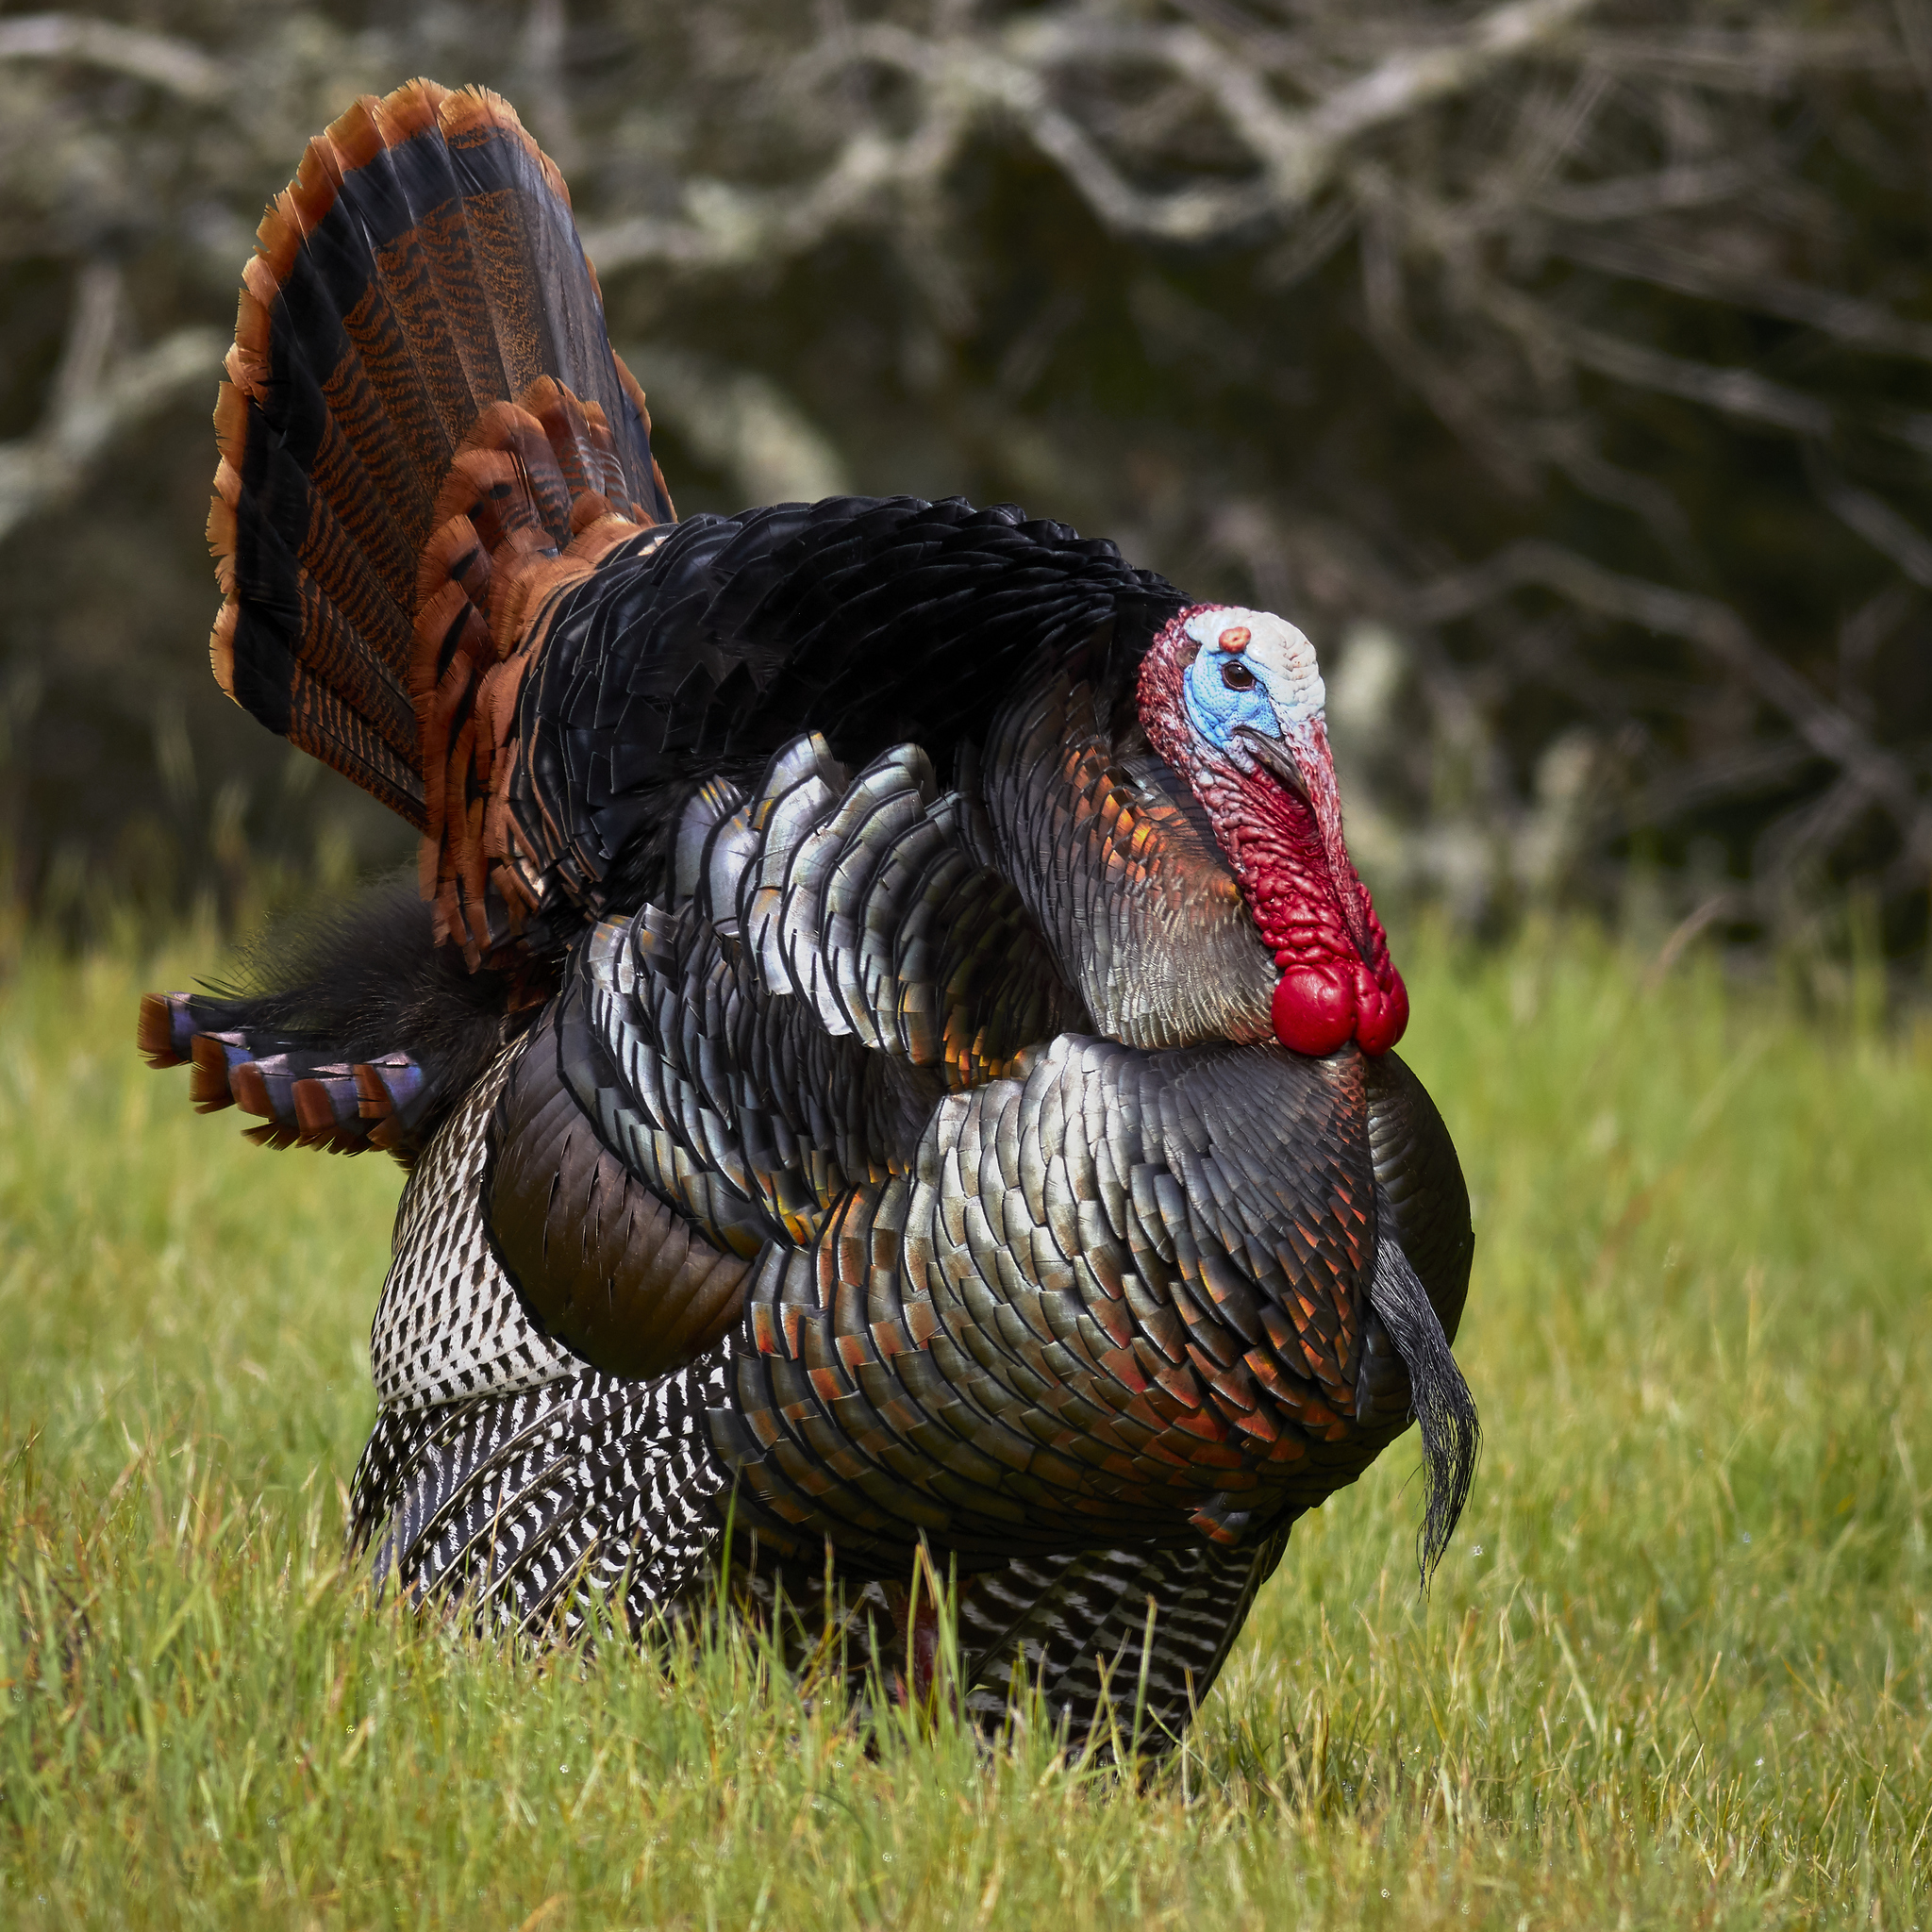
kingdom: Animalia
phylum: Chordata
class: Aves
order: Galliformes
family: Phasianidae
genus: Meleagris
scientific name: Meleagris gallopavo
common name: Wild turkey
